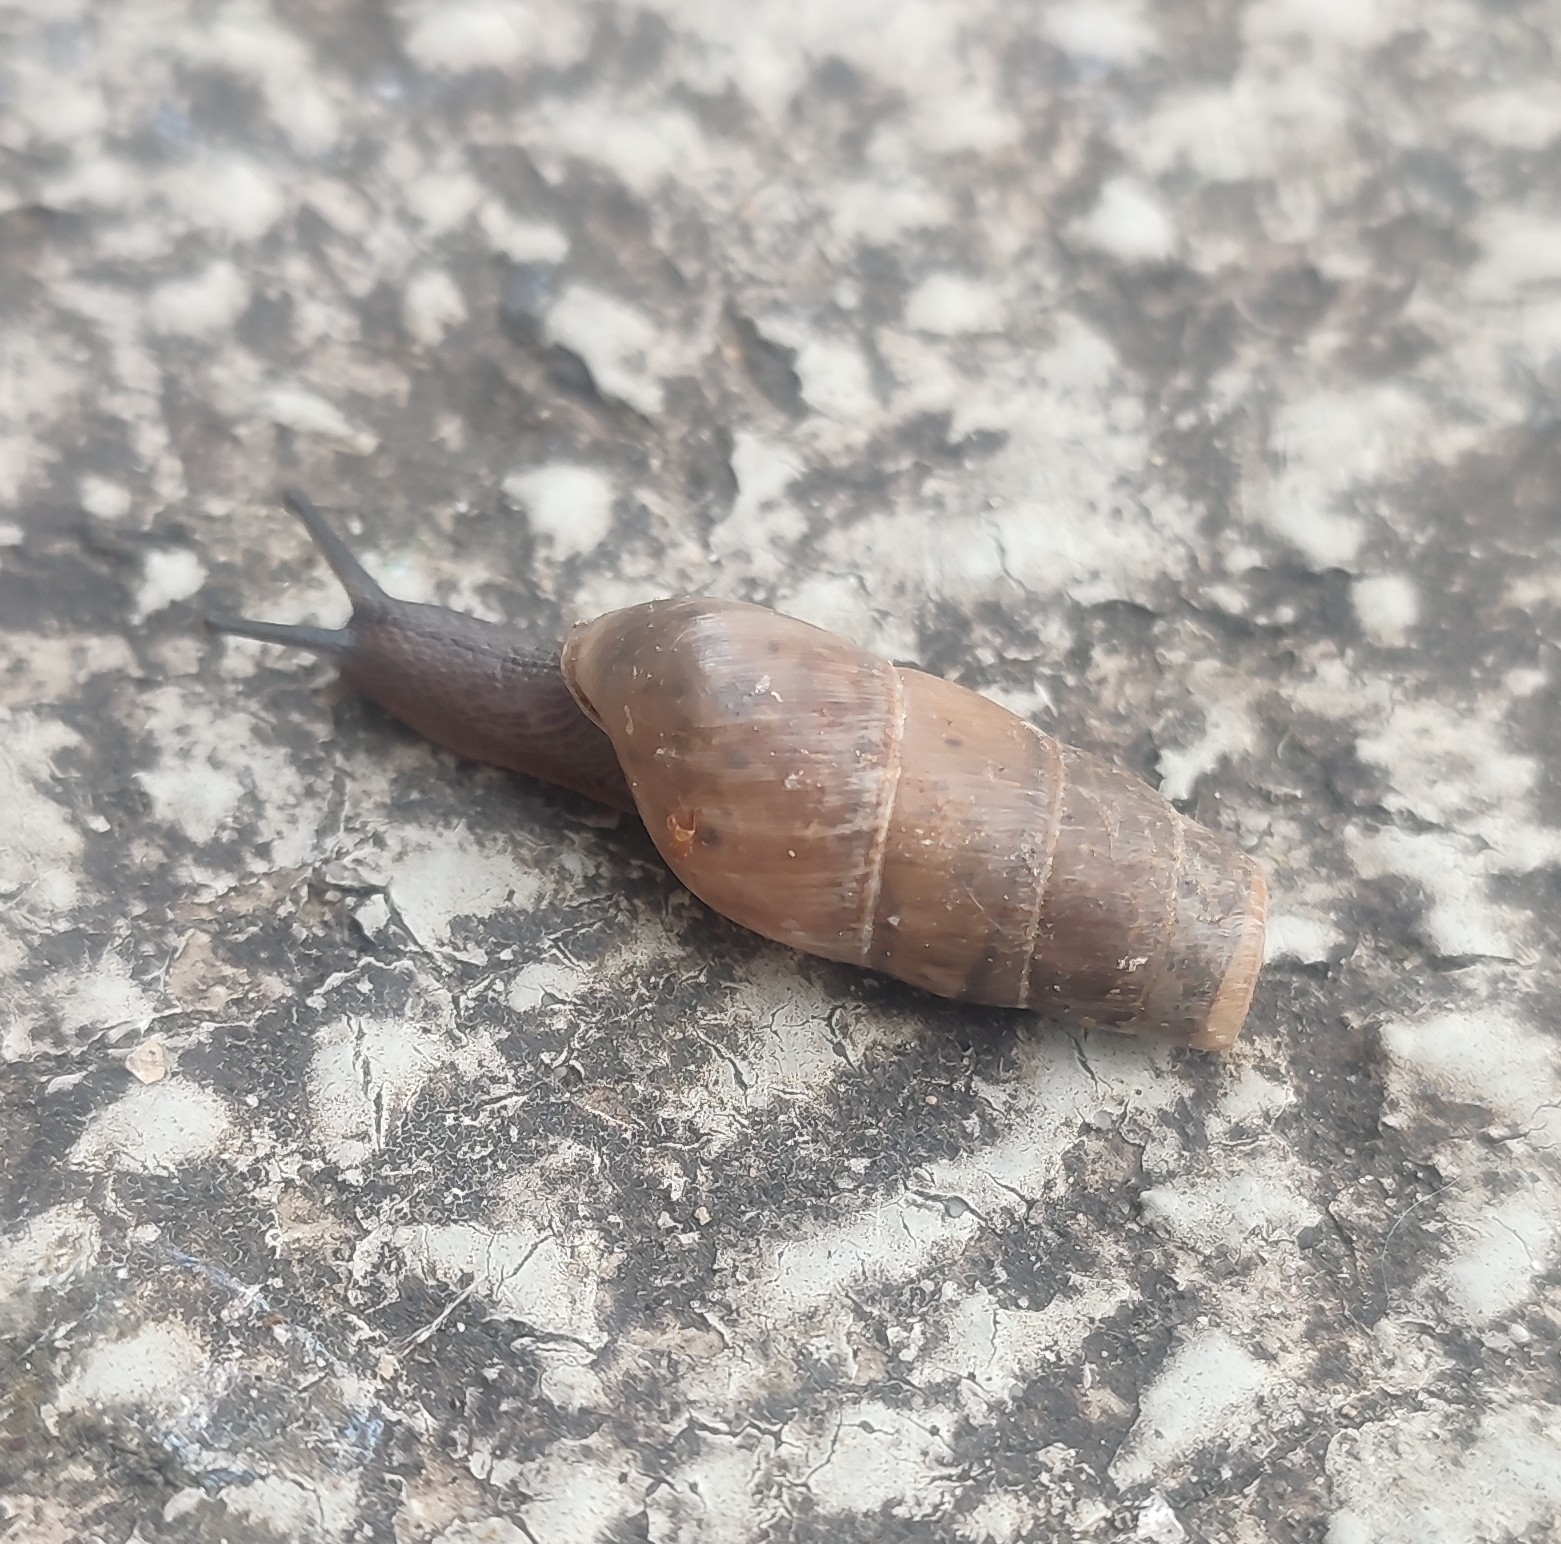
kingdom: Animalia
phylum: Mollusca
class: Gastropoda
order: Stylommatophora
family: Achatinidae
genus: Rumina
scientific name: Rumina decollata
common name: Decollate snail
